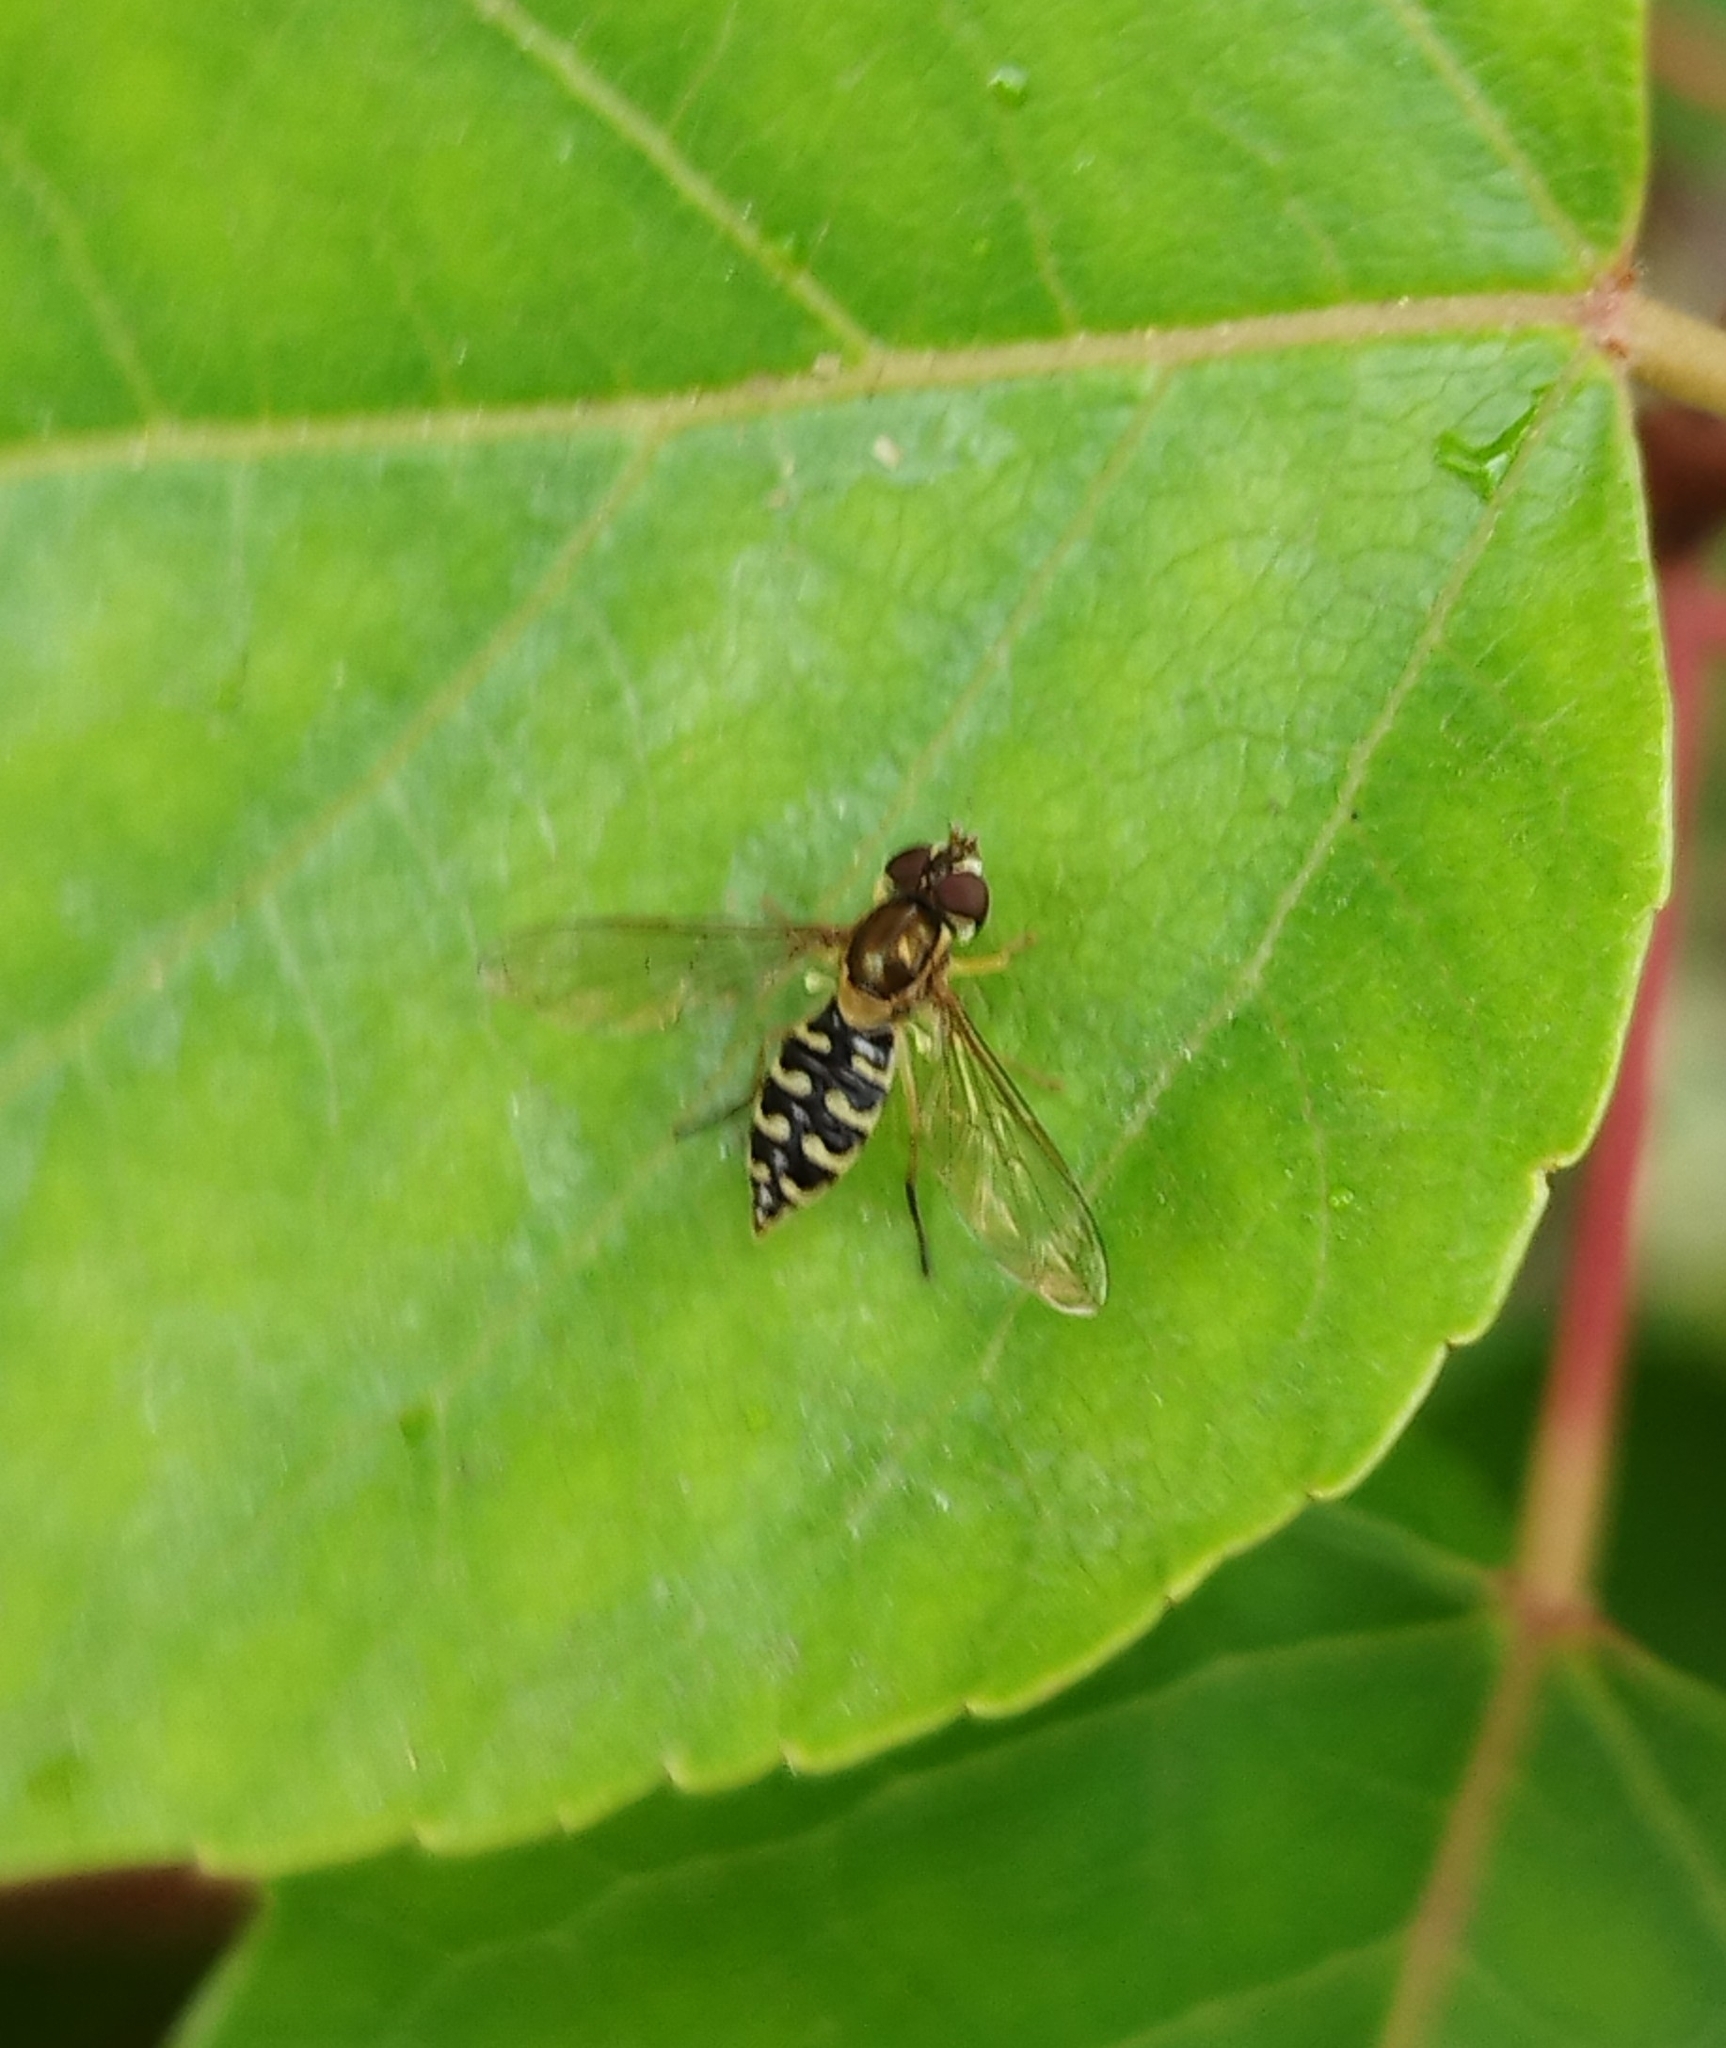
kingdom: Animalia
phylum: Arthropoda
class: Insecta
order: Diptera
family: Syrphidae
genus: Toxomerus
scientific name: Toxomerus vertebratus
